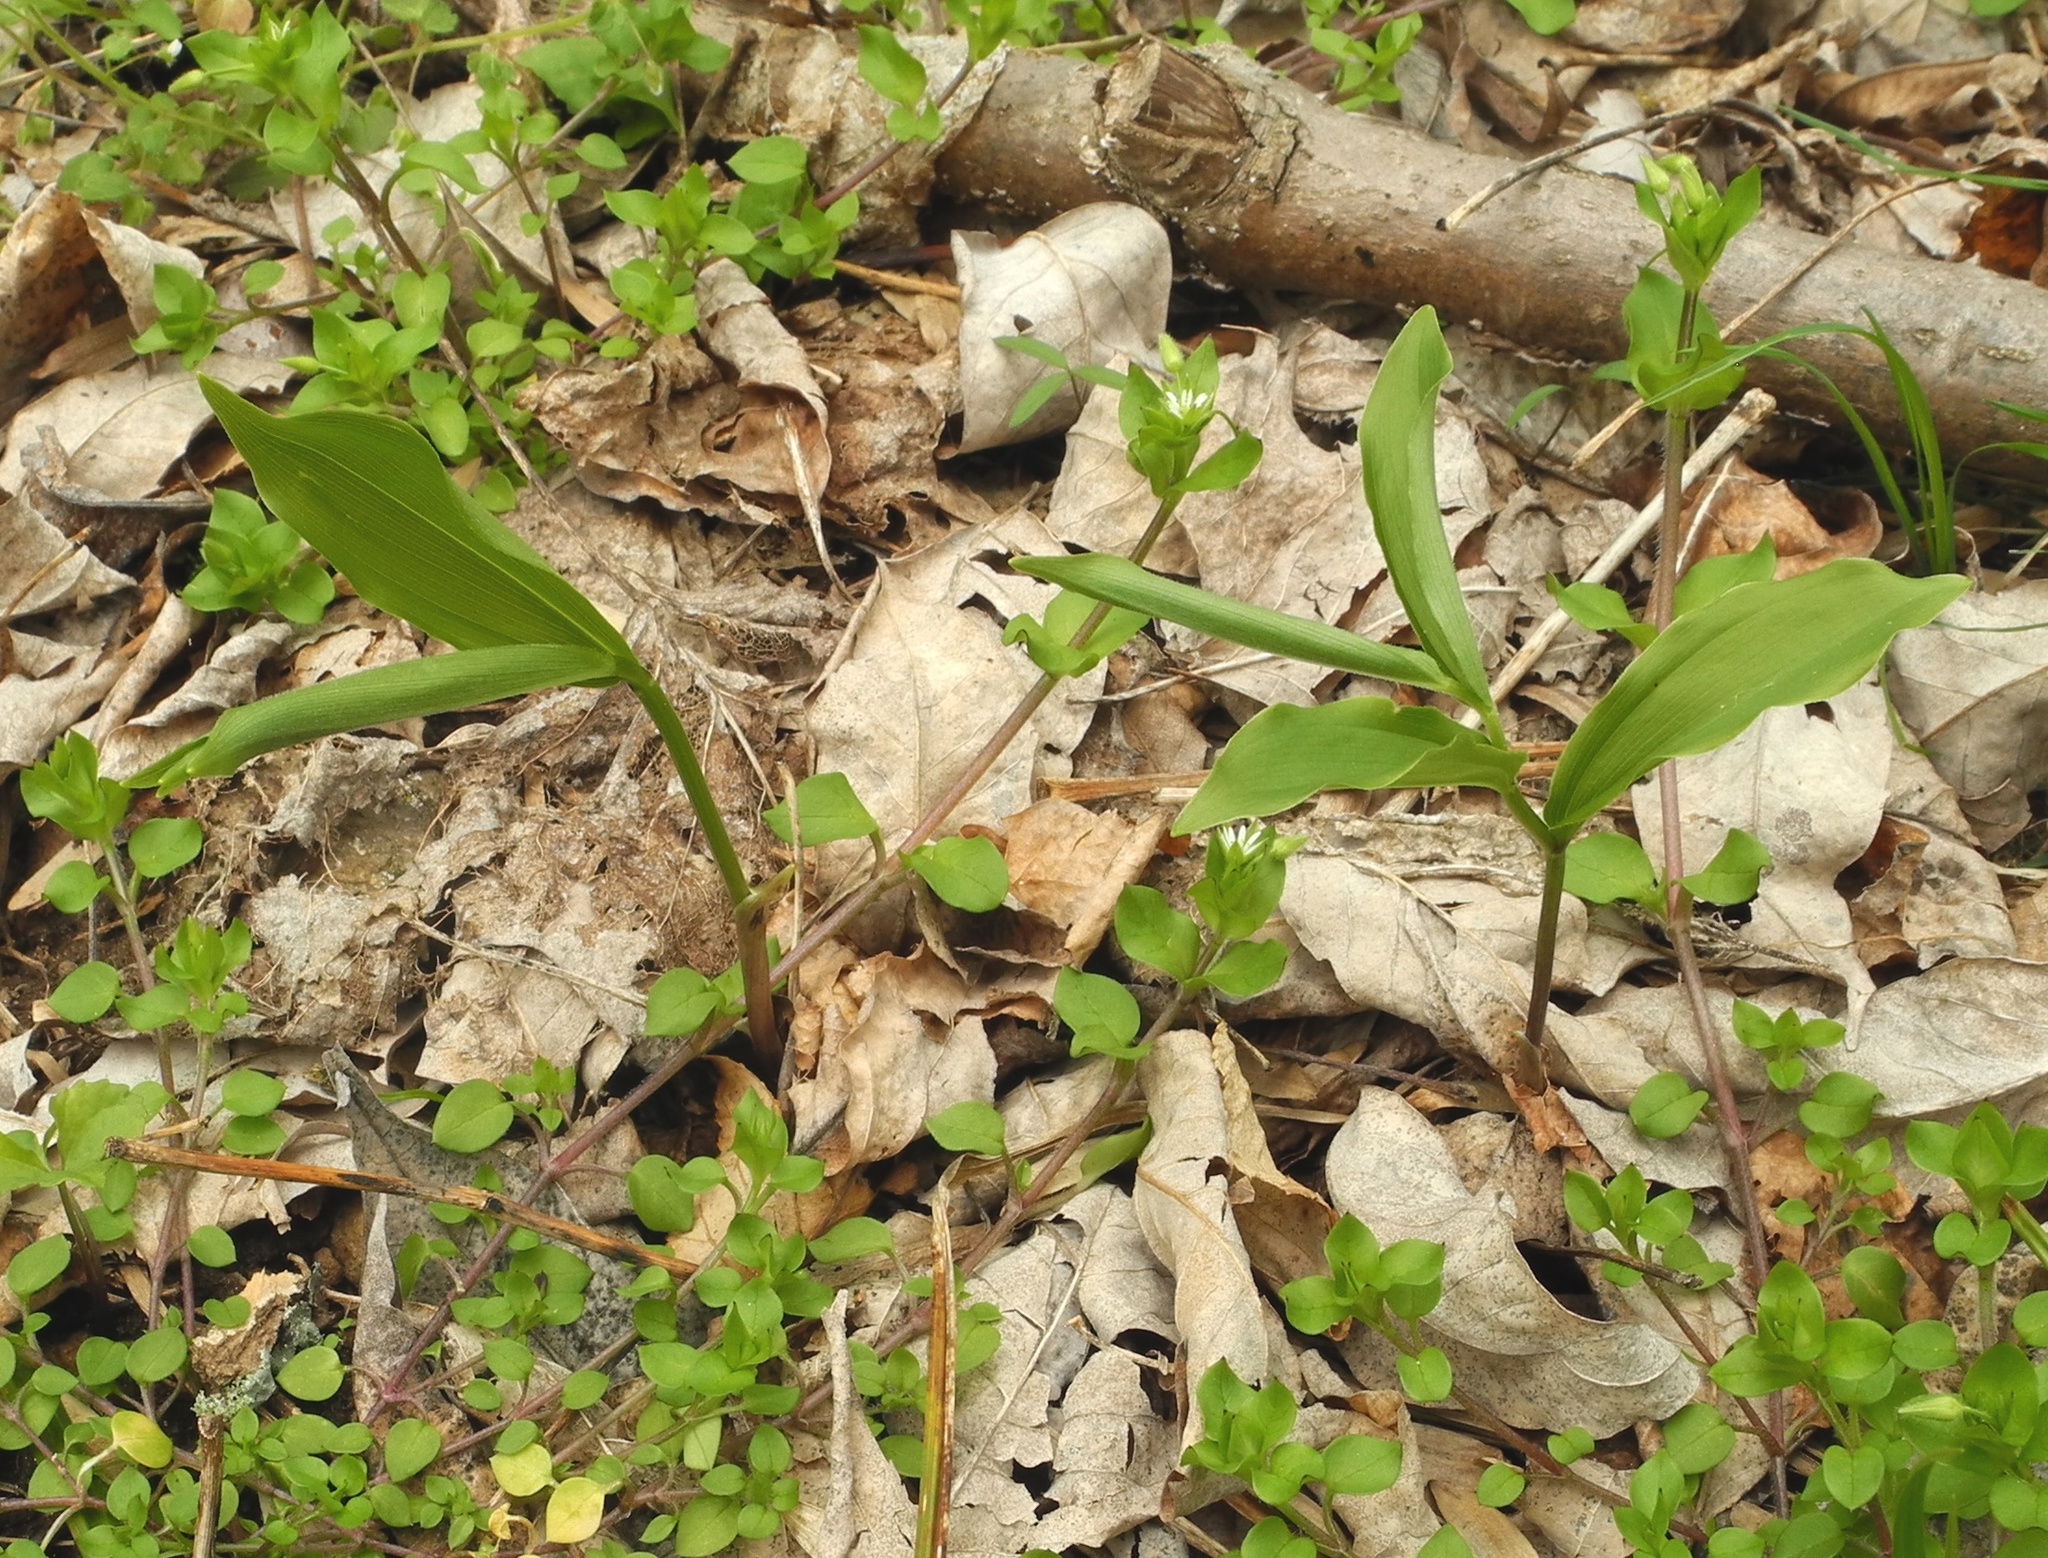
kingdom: Plantae
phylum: Tracheophyta
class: Liliopsida
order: Asparagales
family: Asparagaceae
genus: Maianthemum
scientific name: Maianthemum racemosum
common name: False spikenard
